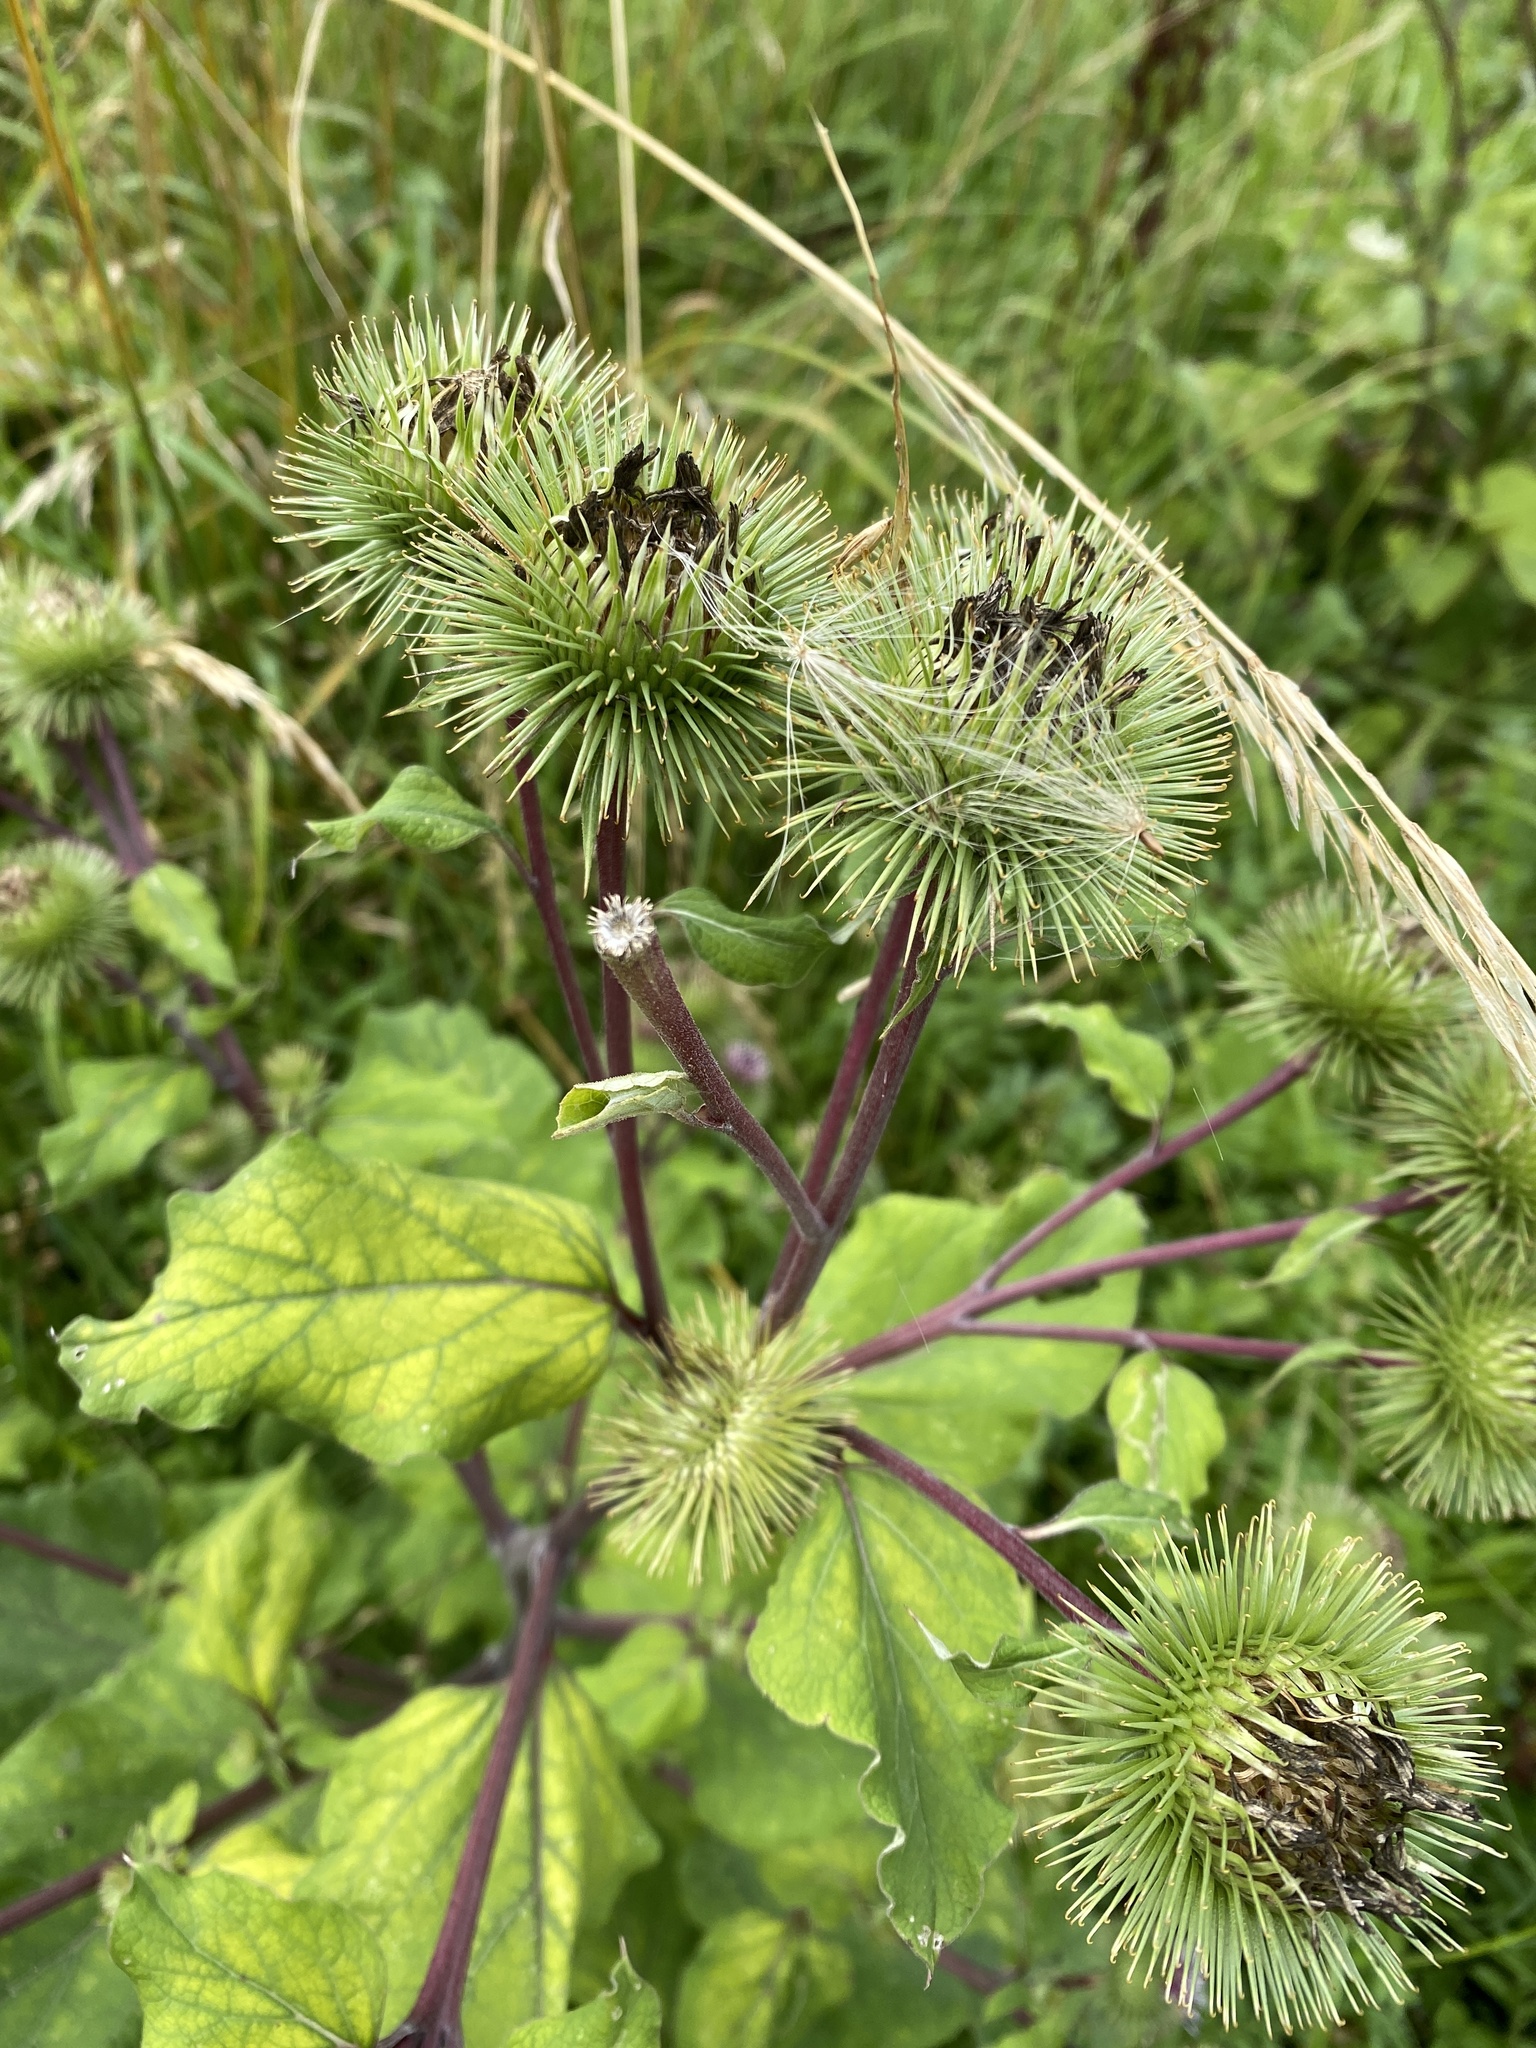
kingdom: Plantae
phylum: Tracheophyta
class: Magnoliopsida
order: Asterales
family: Asteraceae
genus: Arctium
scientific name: Arctium lappa
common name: Greater burdock
